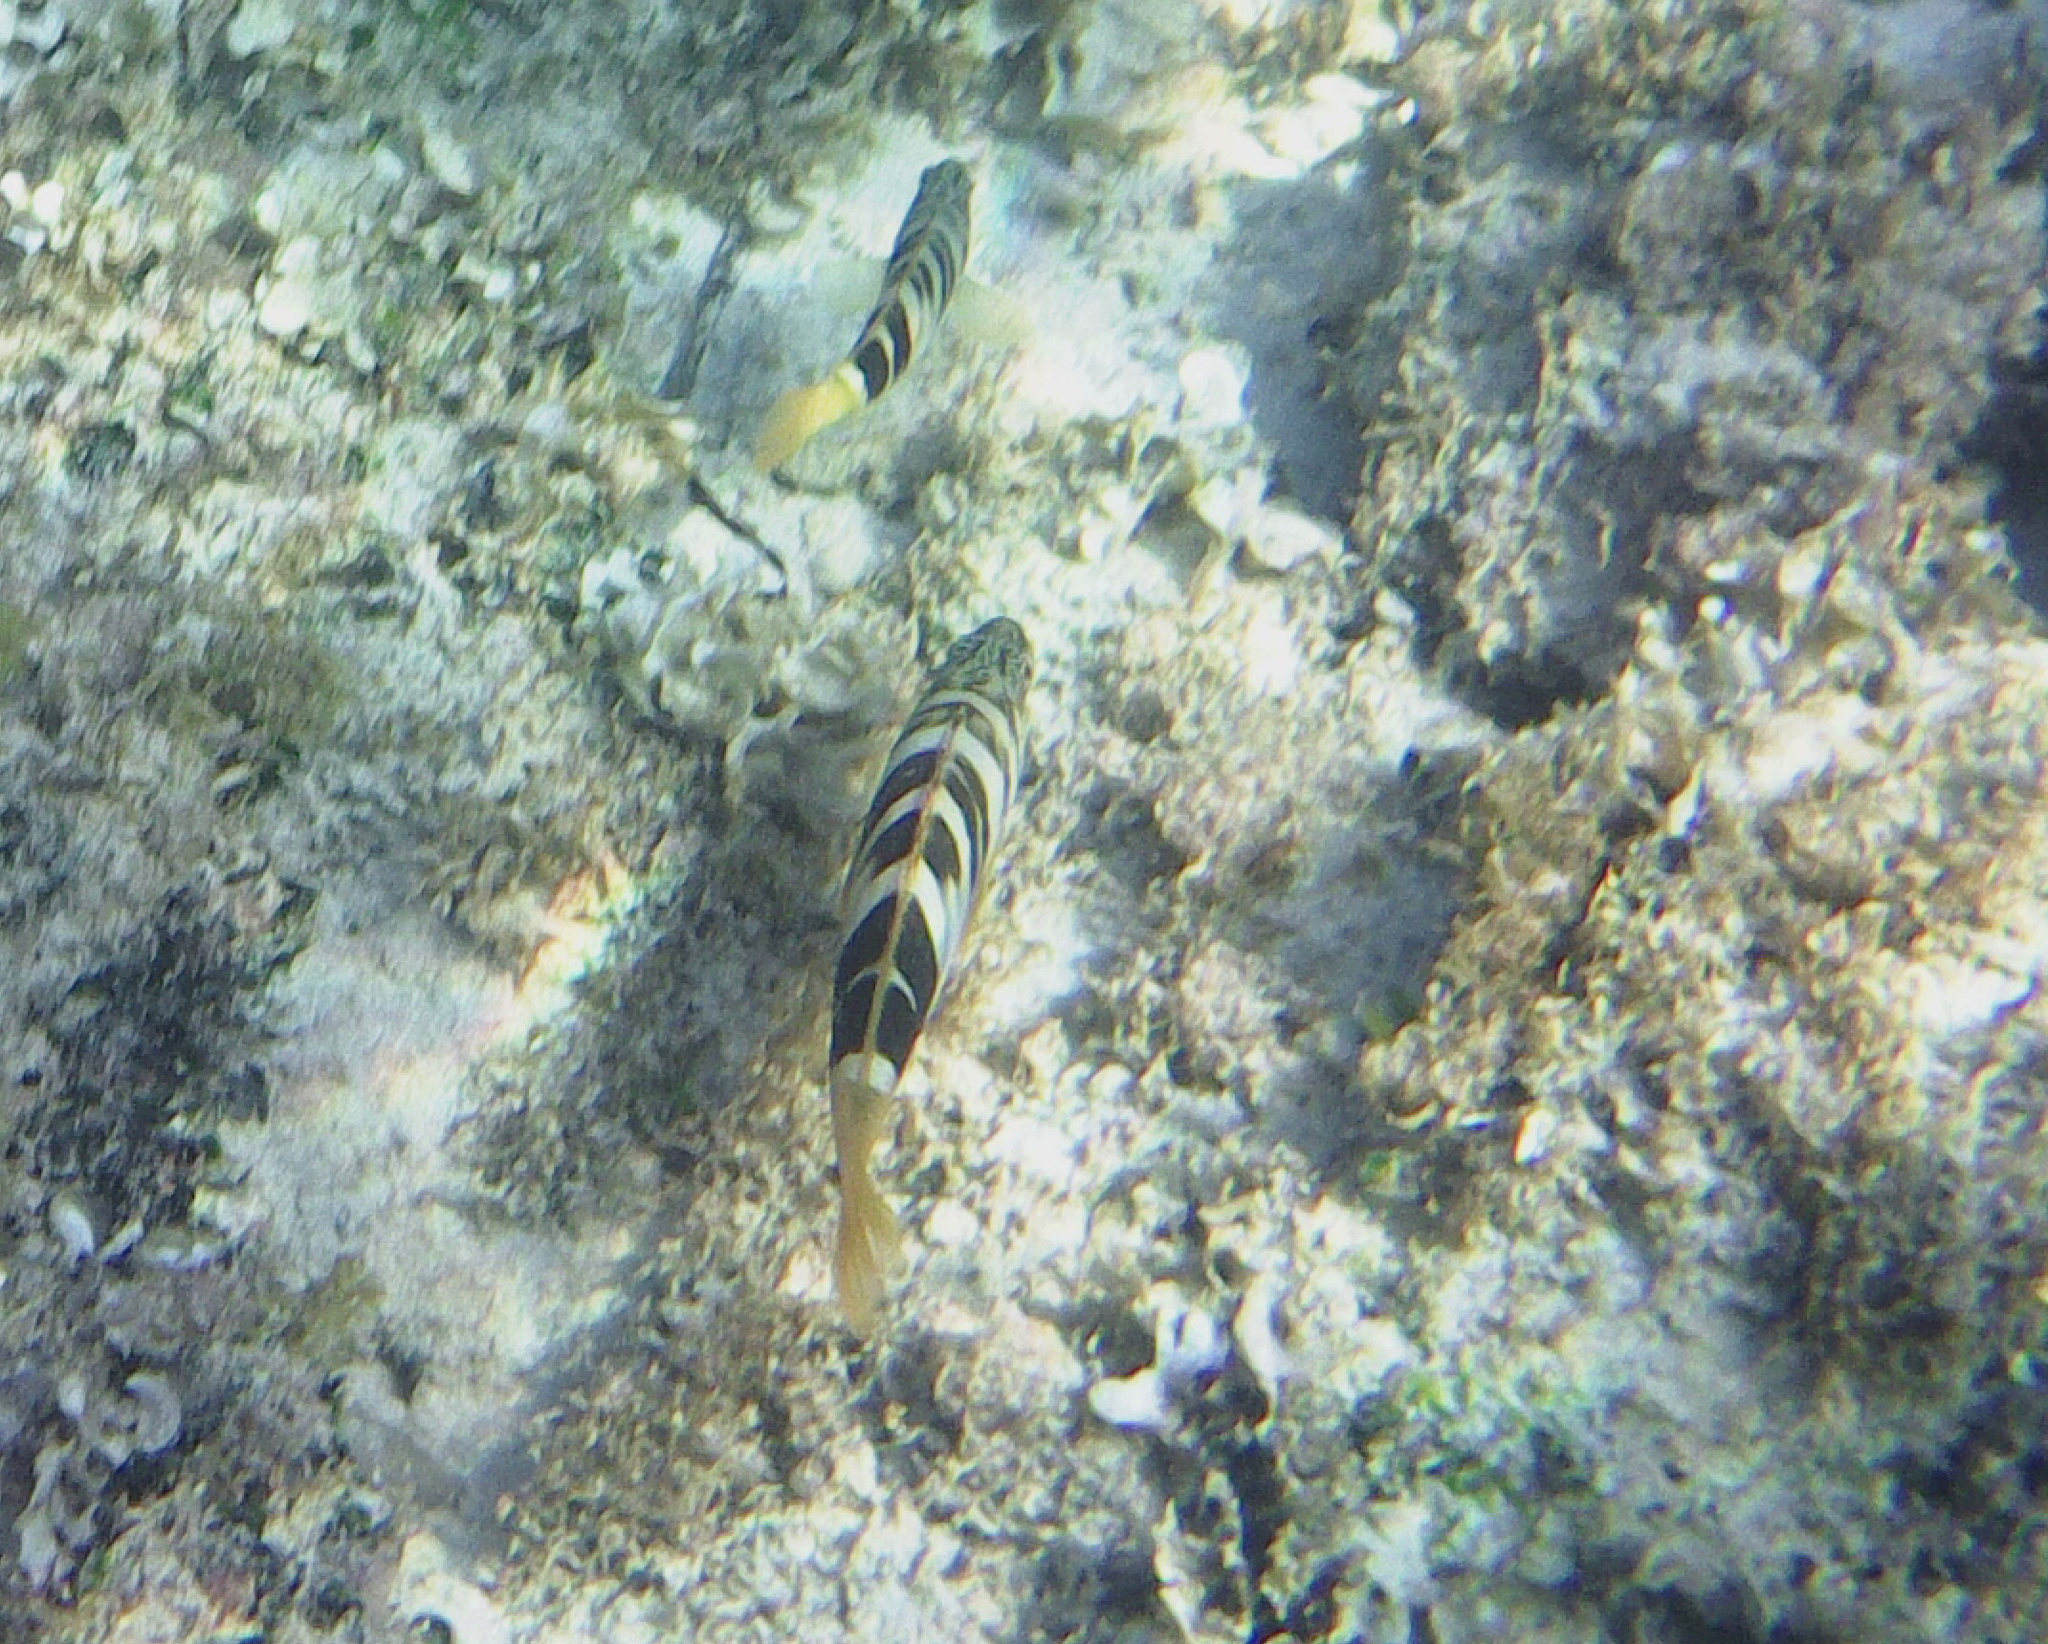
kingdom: Animalia
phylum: Chordata
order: Perciformes
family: Serranidae
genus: Serranus
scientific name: Serranus scriba
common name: Painted comber
